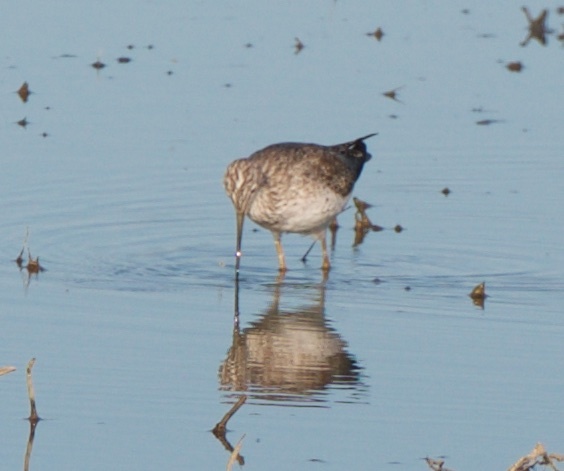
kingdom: Animalia
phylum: Chordata
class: Aves
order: Charadriiformes
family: Scolopacidae
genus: Tringa
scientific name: Tringa melanoleuca
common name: Greater yellowlegs
